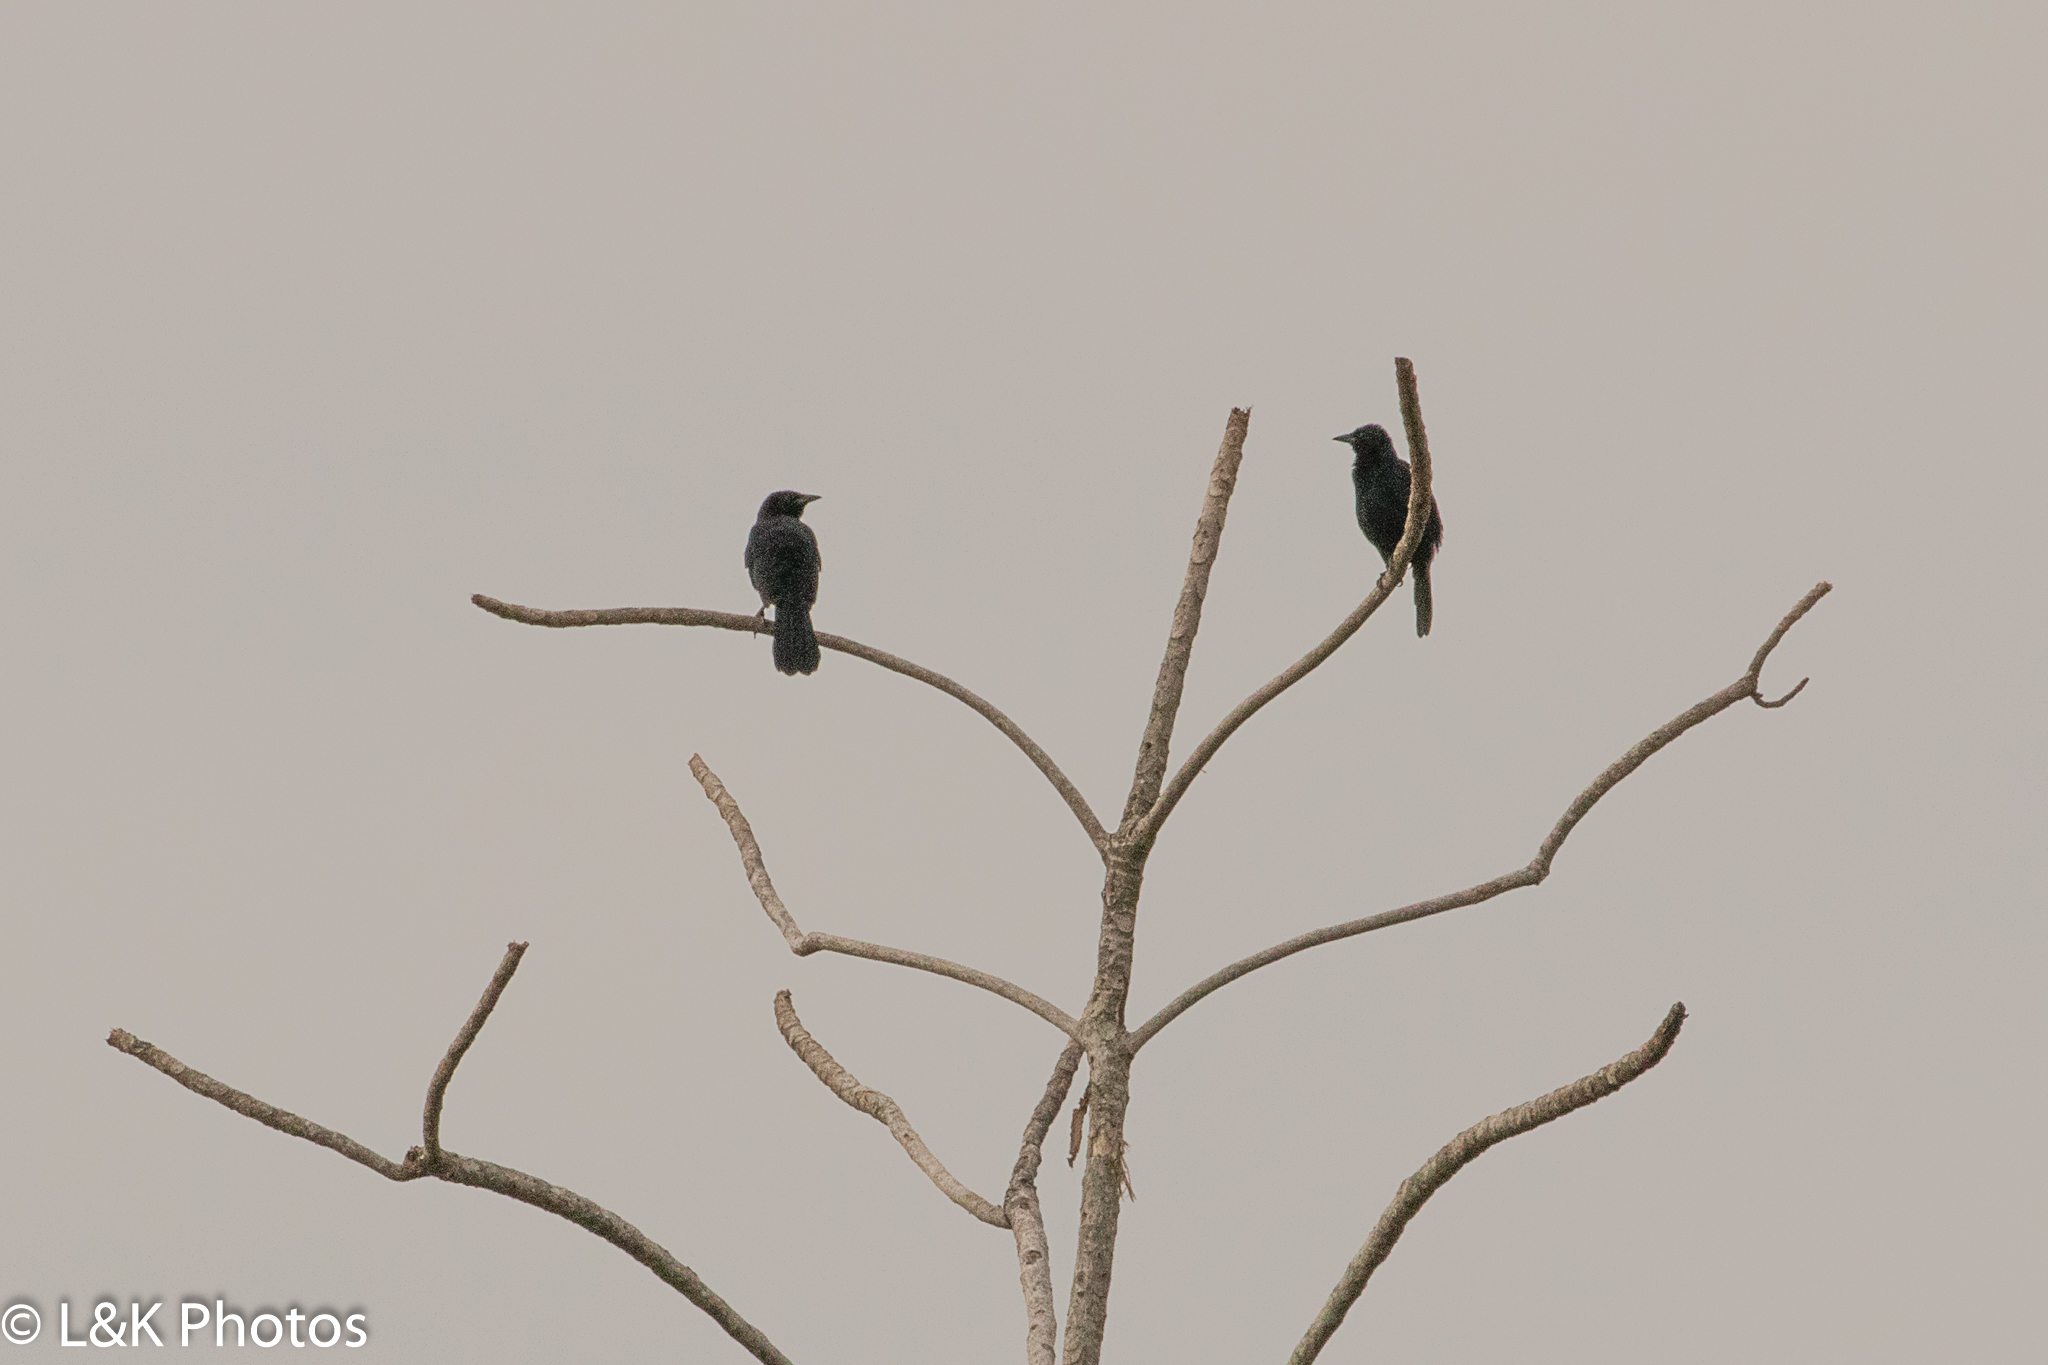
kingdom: Animalia
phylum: Chordata
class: Aves
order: Passeriformes
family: Icteridae
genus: Dives
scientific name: Dives dives
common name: Melodious blackbird
